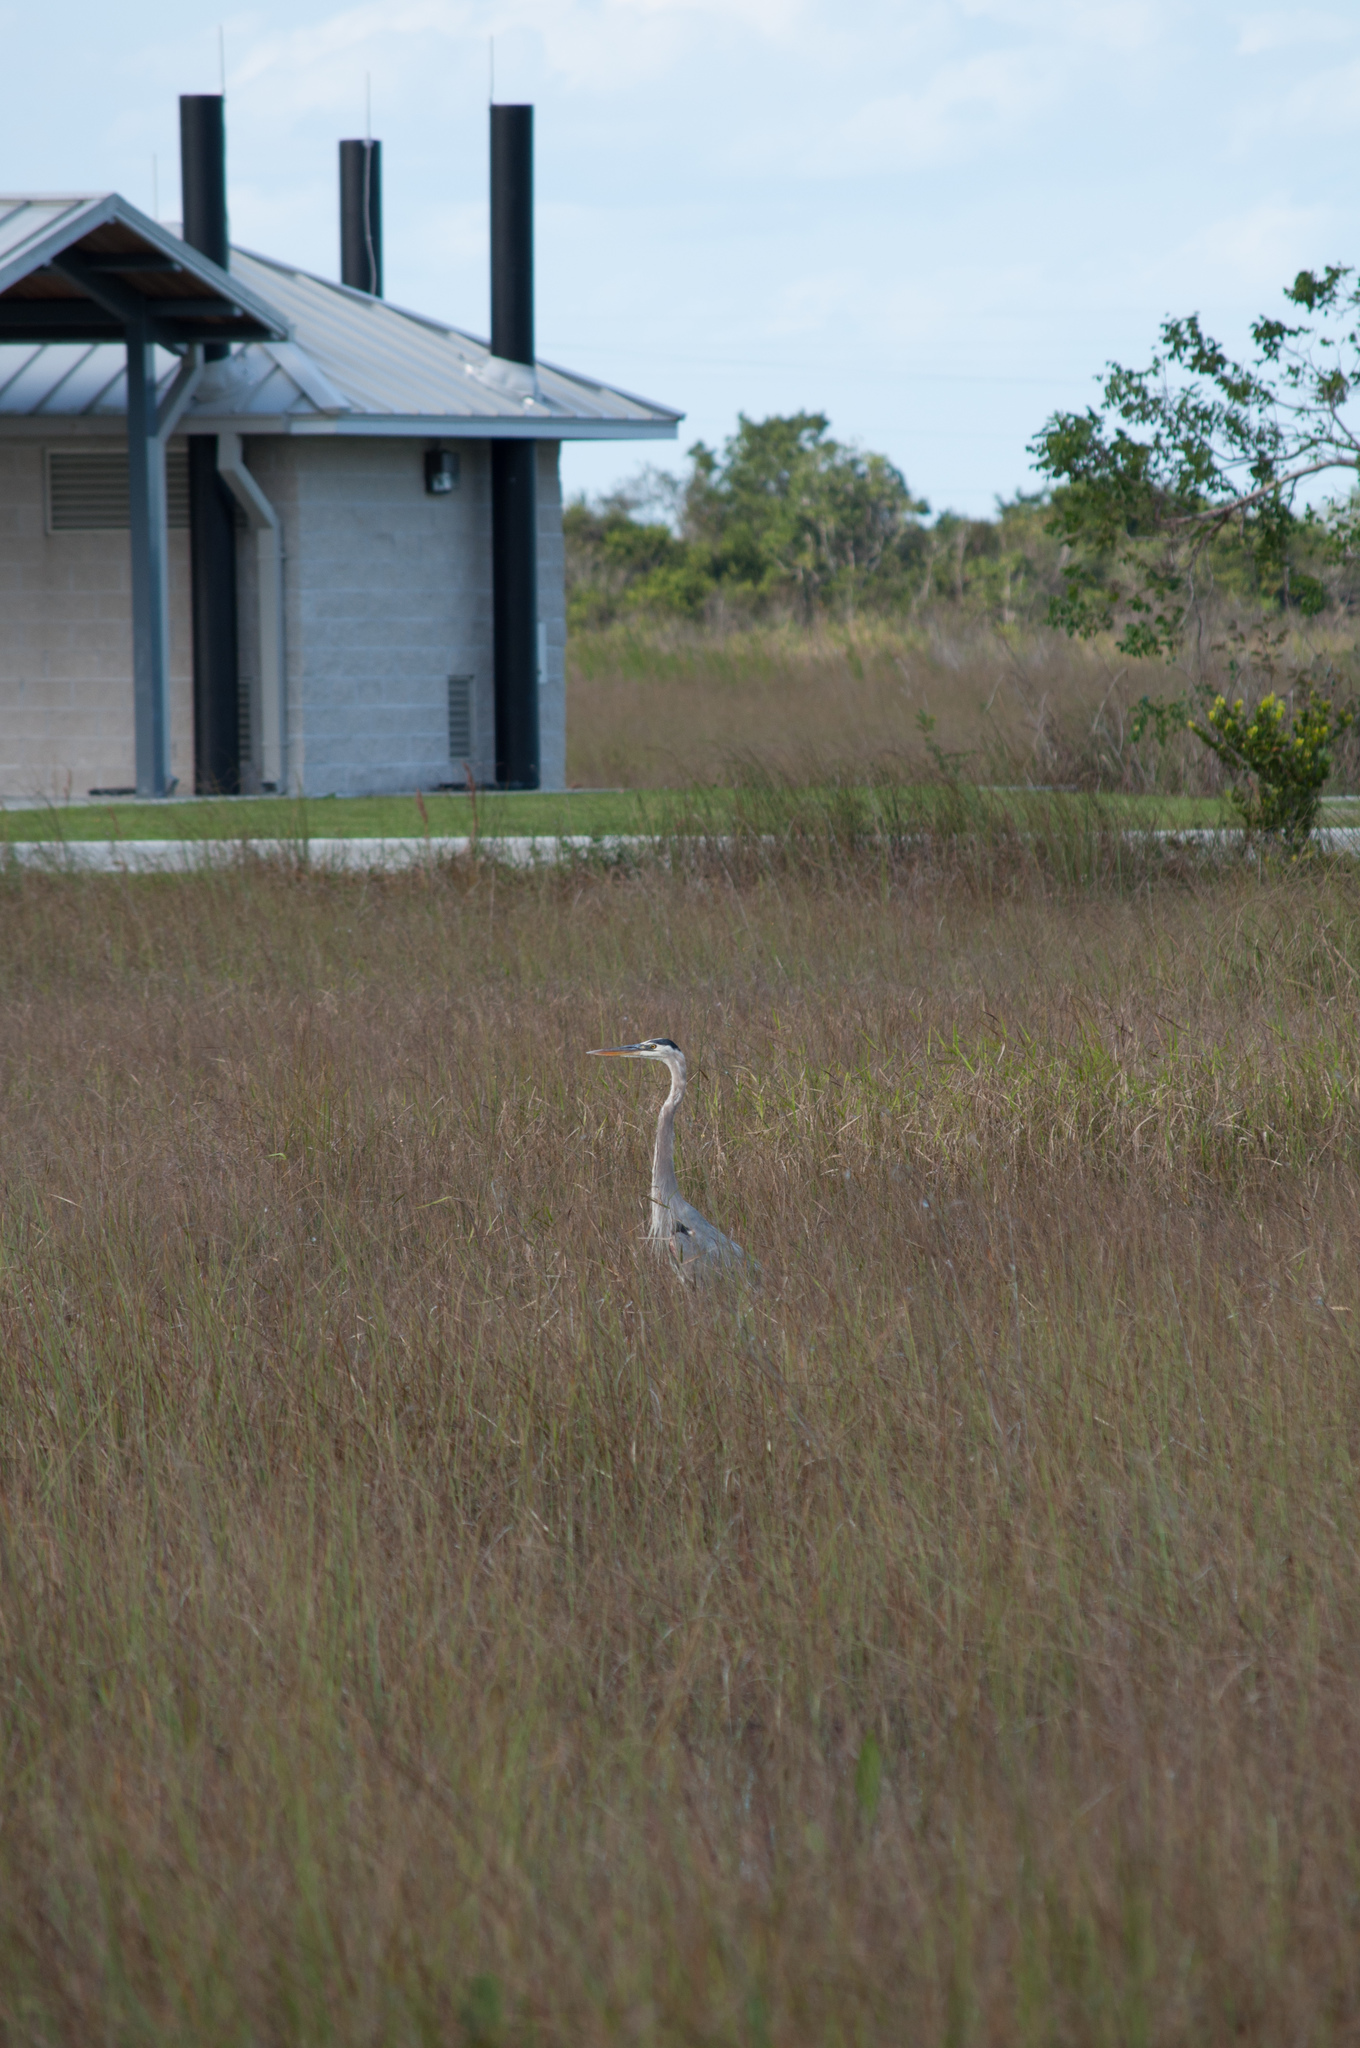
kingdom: Animalia
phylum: Chordata
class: Aves
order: Pelecaniformes
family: Ardeidae
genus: Ardea
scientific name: Ardea herodias
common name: Great blue heron
